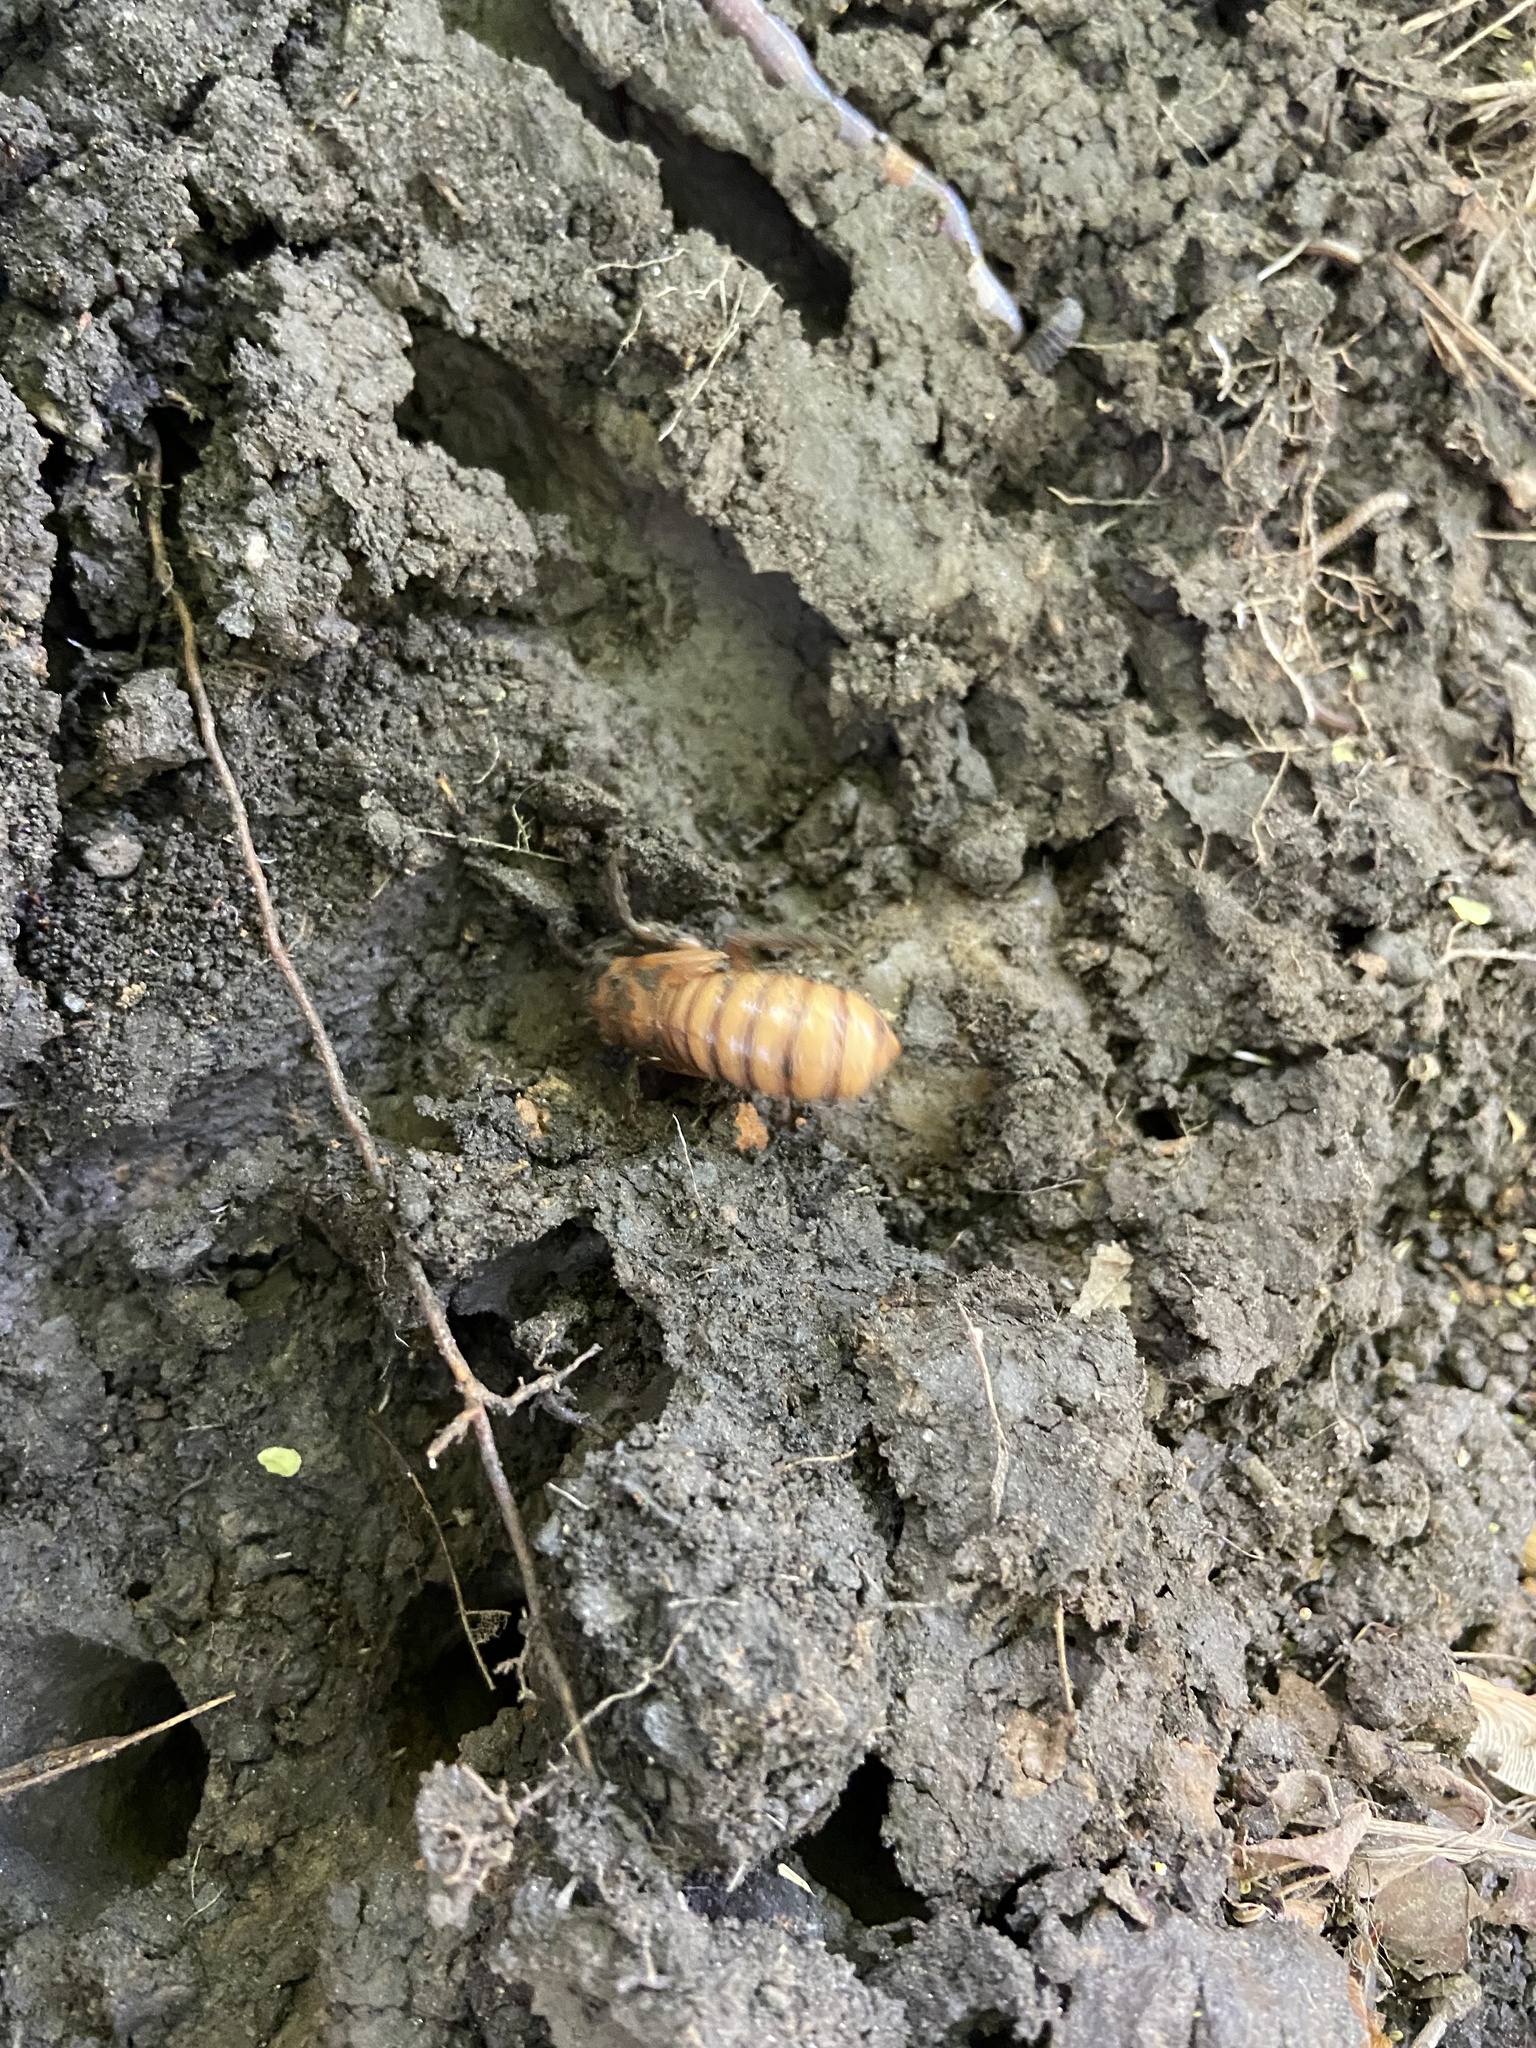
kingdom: Animalia
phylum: Arthropoda
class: Insecta
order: Hemiptera
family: Cicadidae
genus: Magicicada
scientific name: Magicicada
